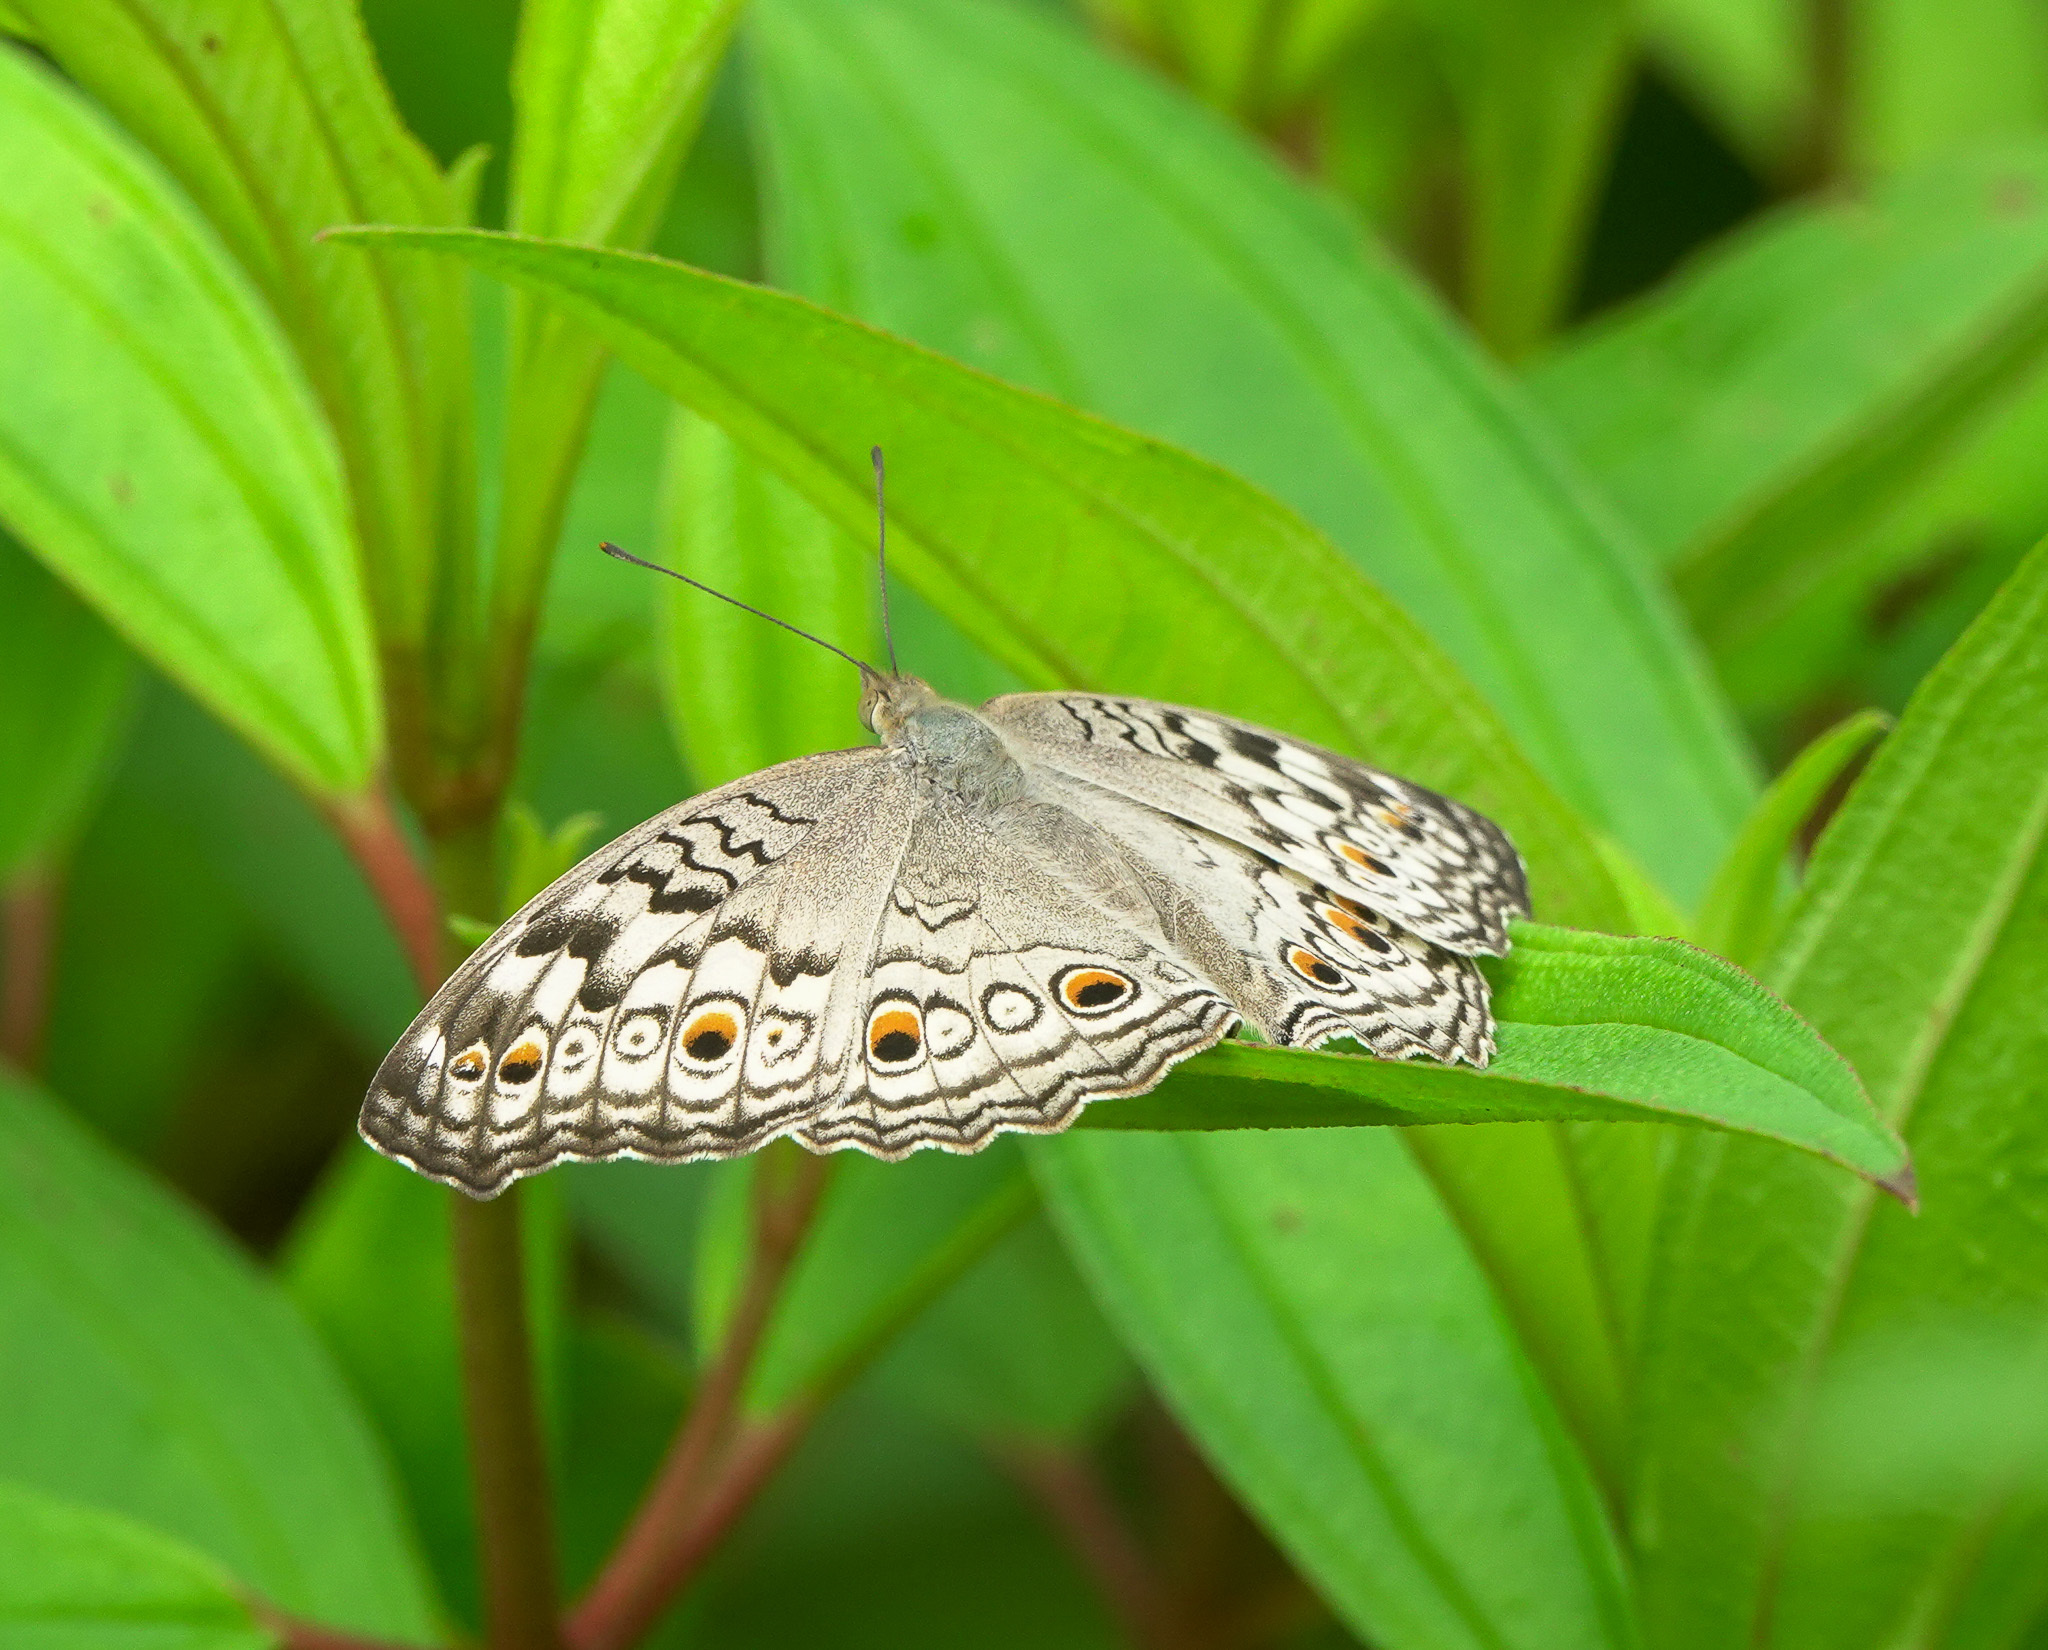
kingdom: Animalia
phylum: Arthropoda
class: Insecta
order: Lepidoptera
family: Nymphalidae
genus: Junonia
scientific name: Junonia atlites
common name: Grey pansy
